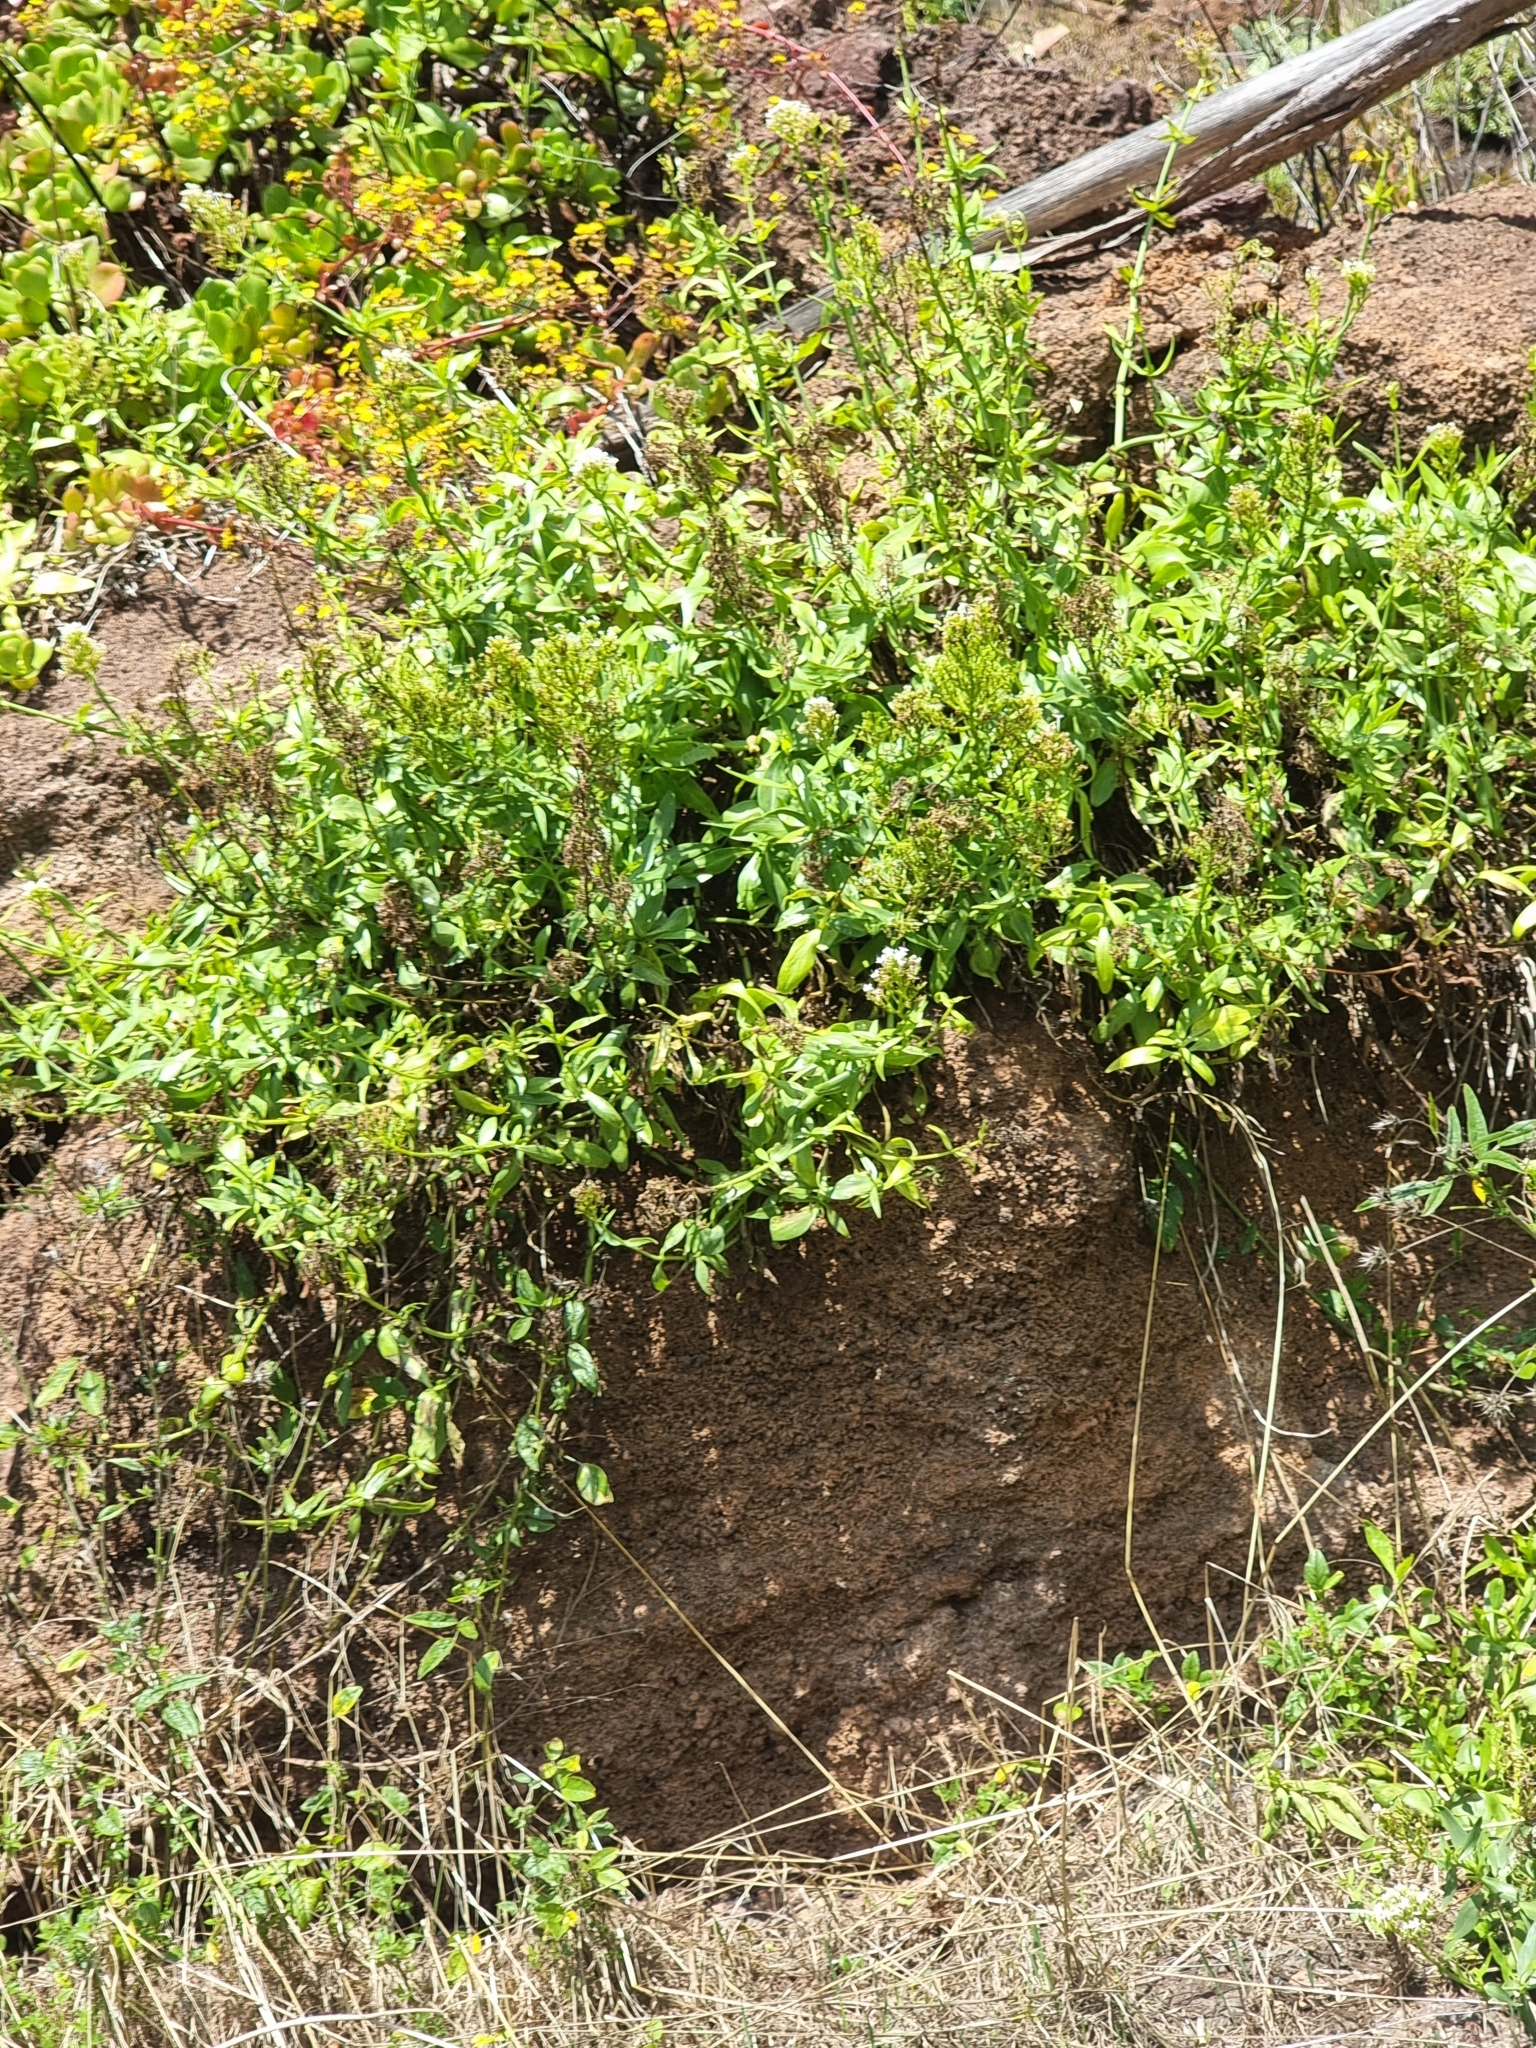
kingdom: Plantae
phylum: Tracheophyta
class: Magnoliopsida
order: Dipsacales
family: Caprifoliaceae
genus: Centranthus
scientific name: Centranthus ruber
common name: Red valerian
